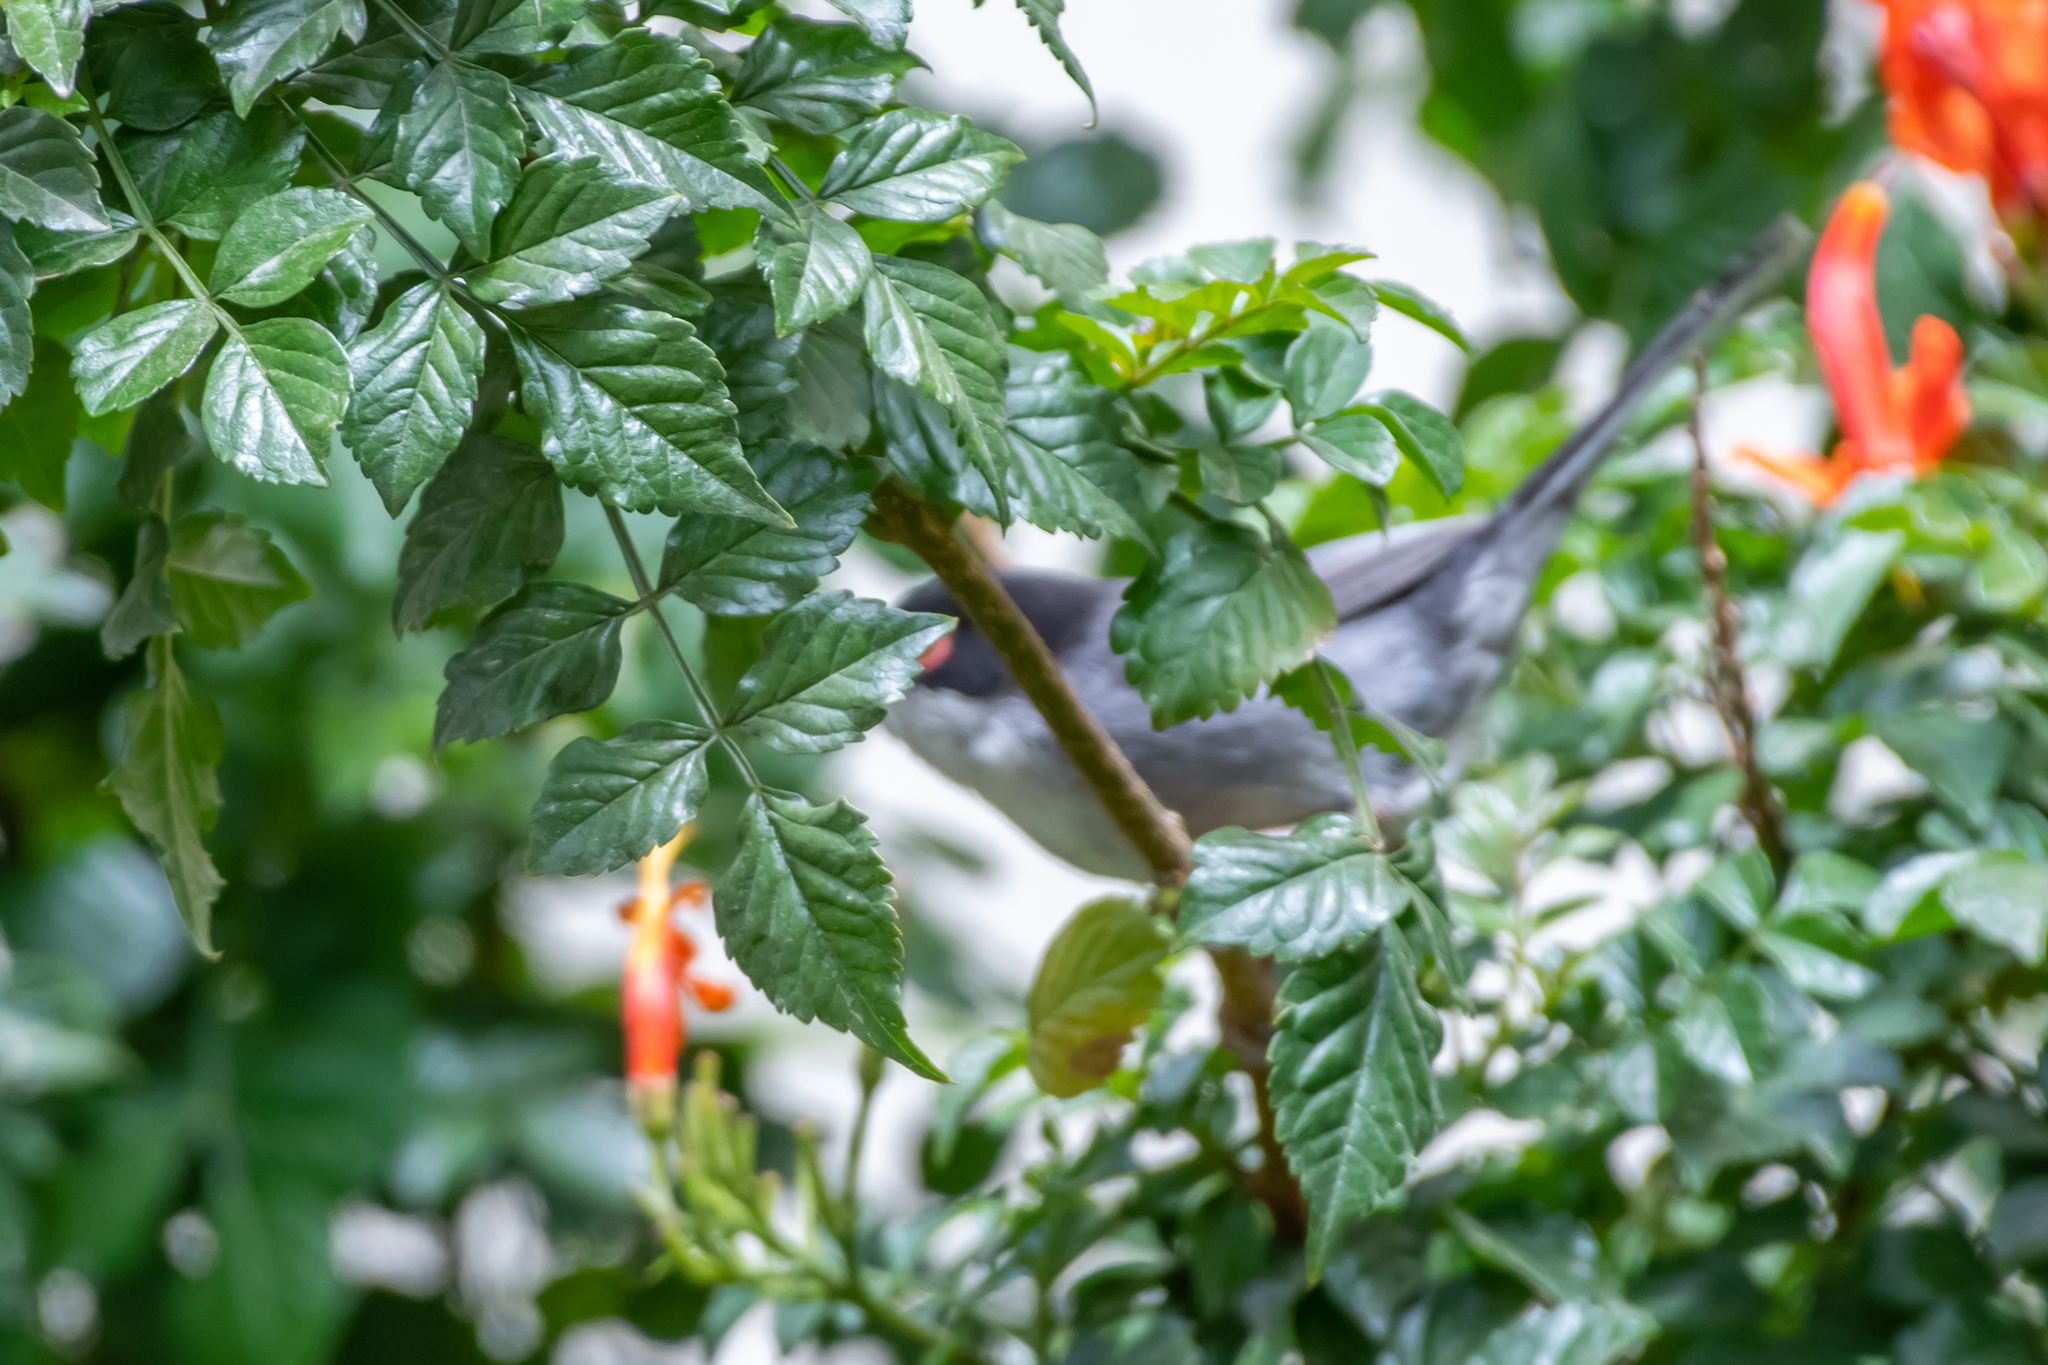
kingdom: Animalia
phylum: Chordata
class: Aves
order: Passeriformes
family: Sylviidae
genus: Curruca
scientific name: Curruca melanocephala
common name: Sardinian warbler
